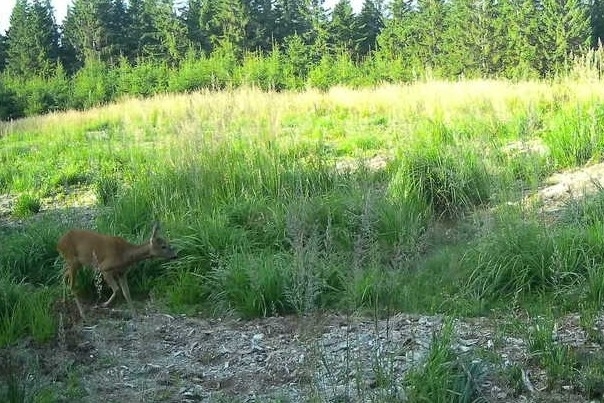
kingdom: Animalia
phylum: Chordata
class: Mammalia
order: Artiodactyla
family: Cervidae
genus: Capreolus
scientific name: Capreolus capreolus
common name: Western roe deer
